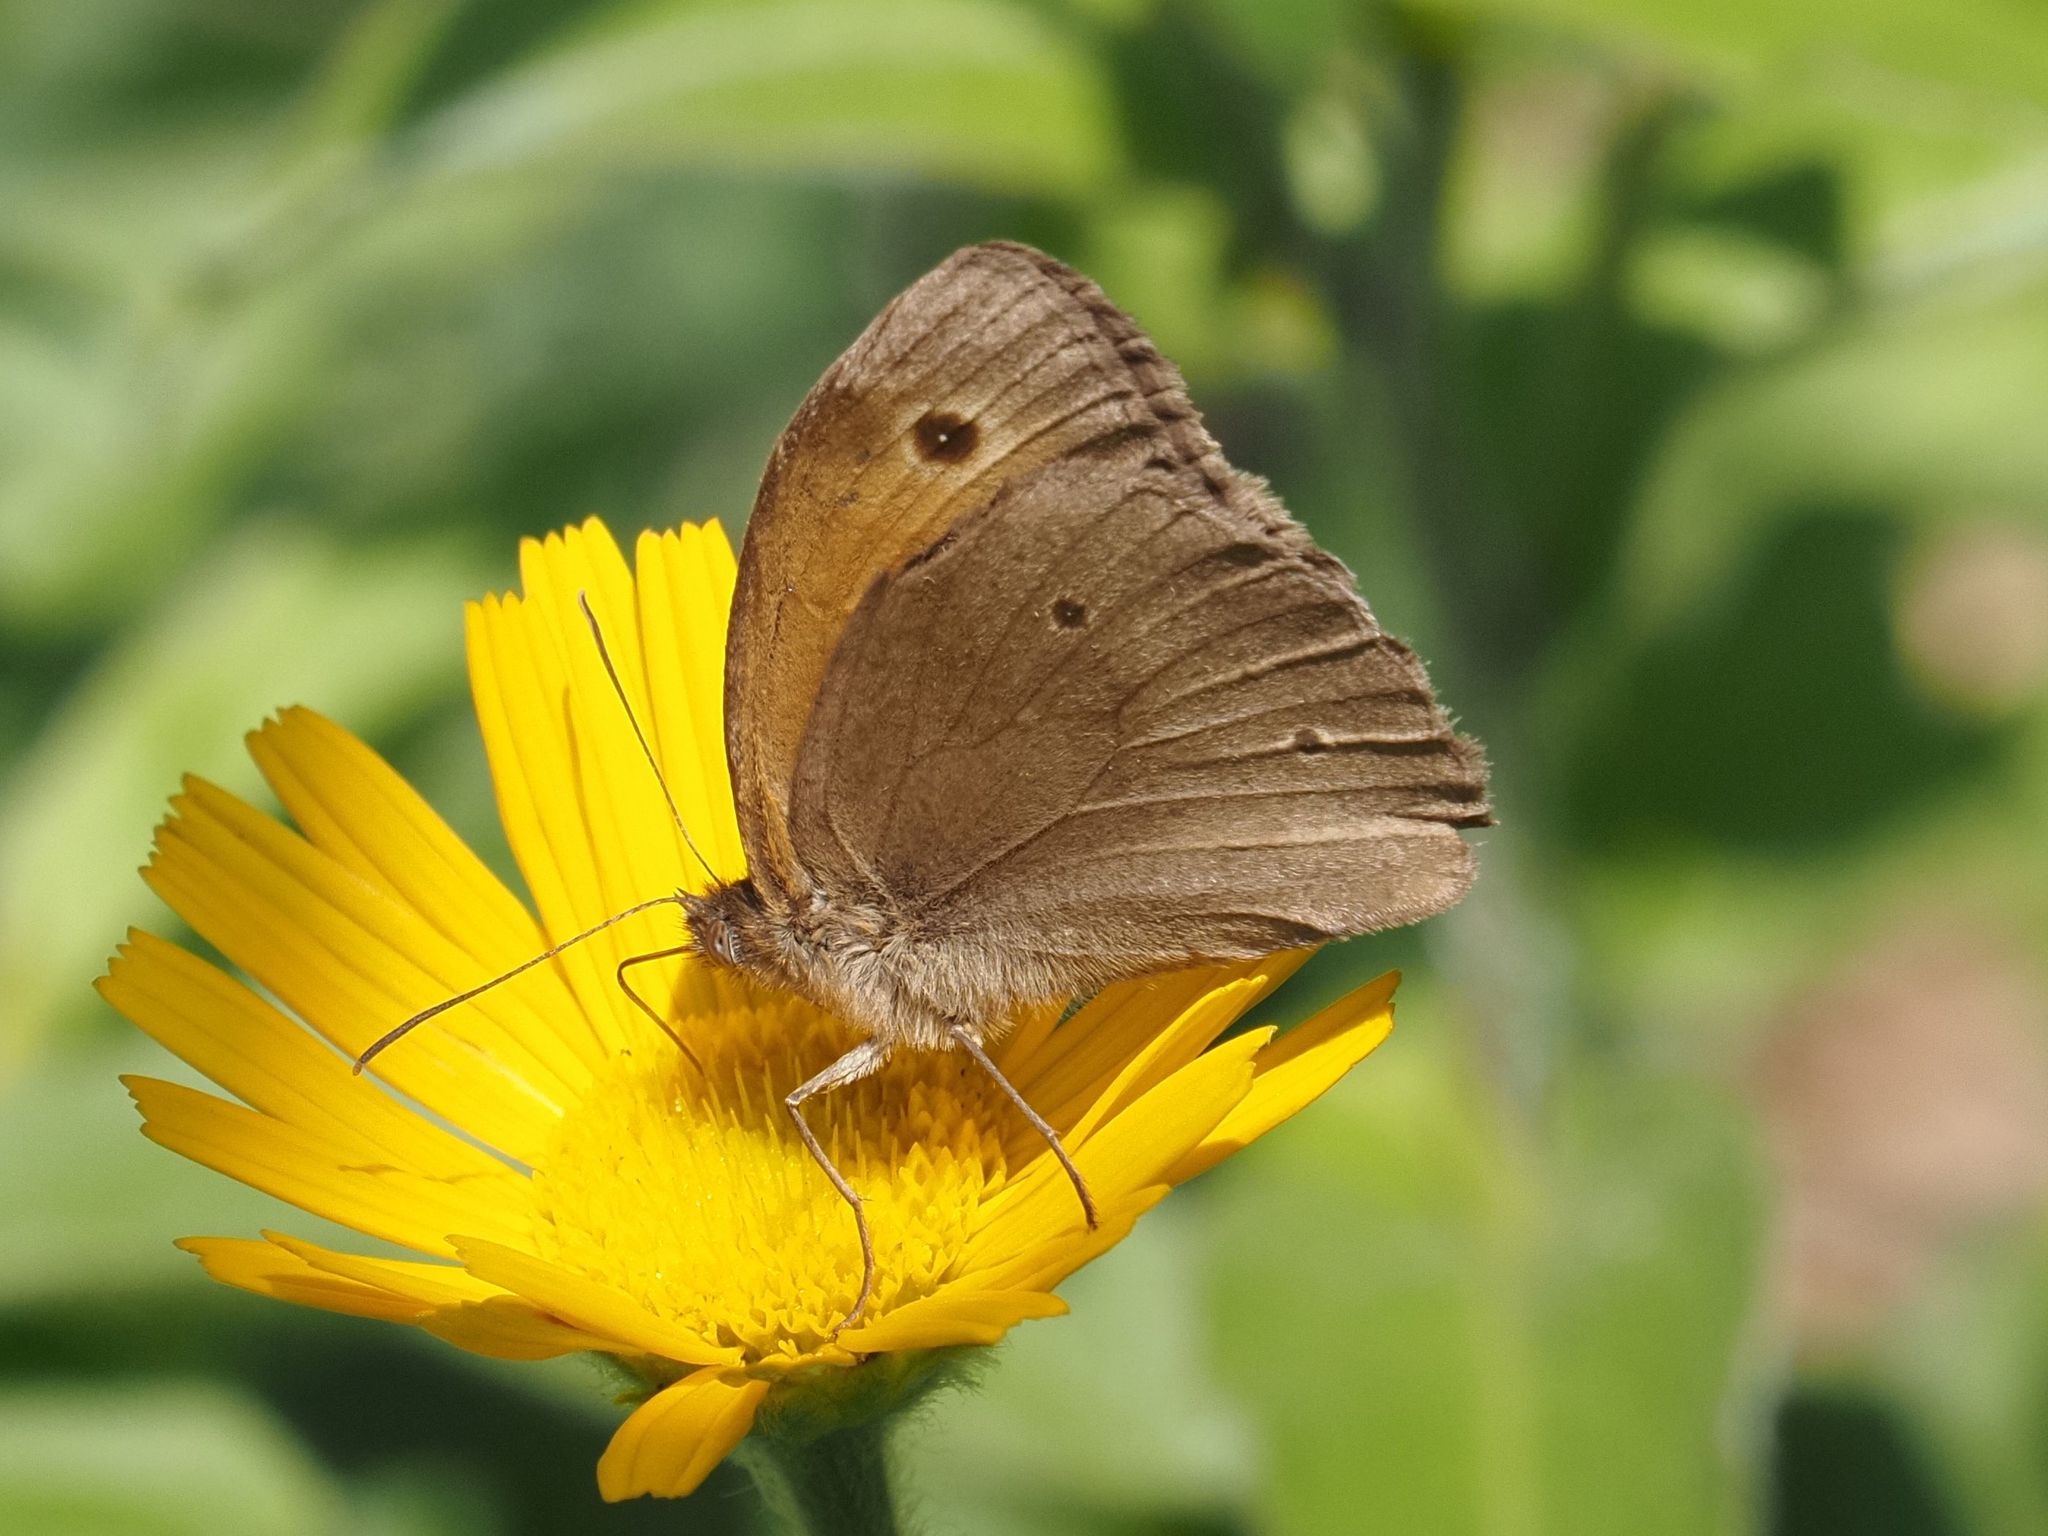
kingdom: Animalia
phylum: Arthropoda
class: Insecta
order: Lepidoptera
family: Nymphalidae
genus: Maniola
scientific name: Maniola jurtina
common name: Meadow brown
